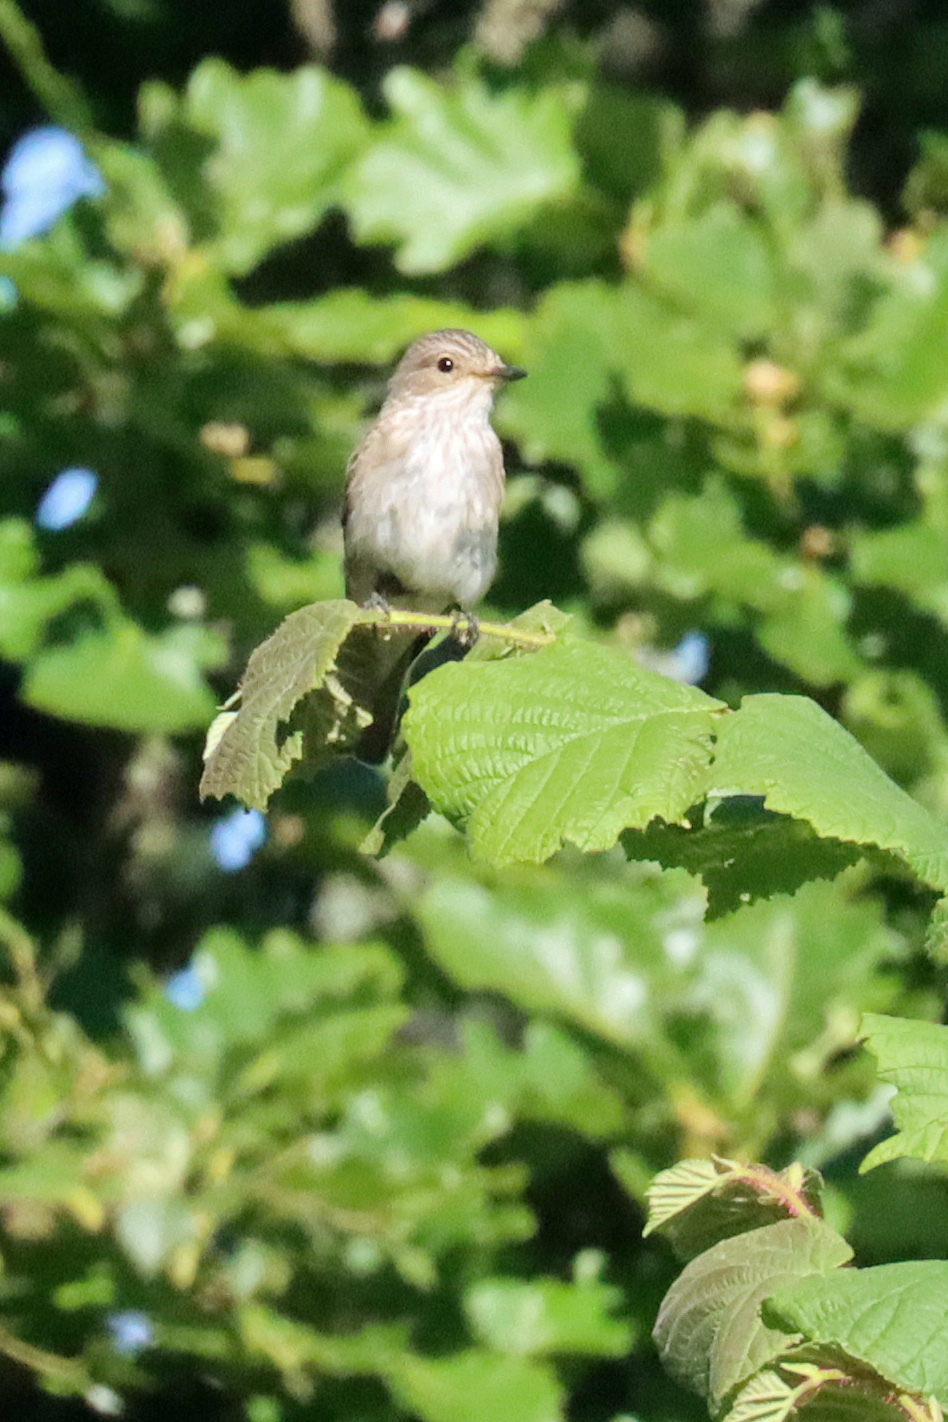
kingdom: Animalia
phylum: Chordata
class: Aves
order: Passeriformes
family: Muscicapidae
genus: Muscicapa
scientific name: Muscicapa striata
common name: Spotted flycatcher
